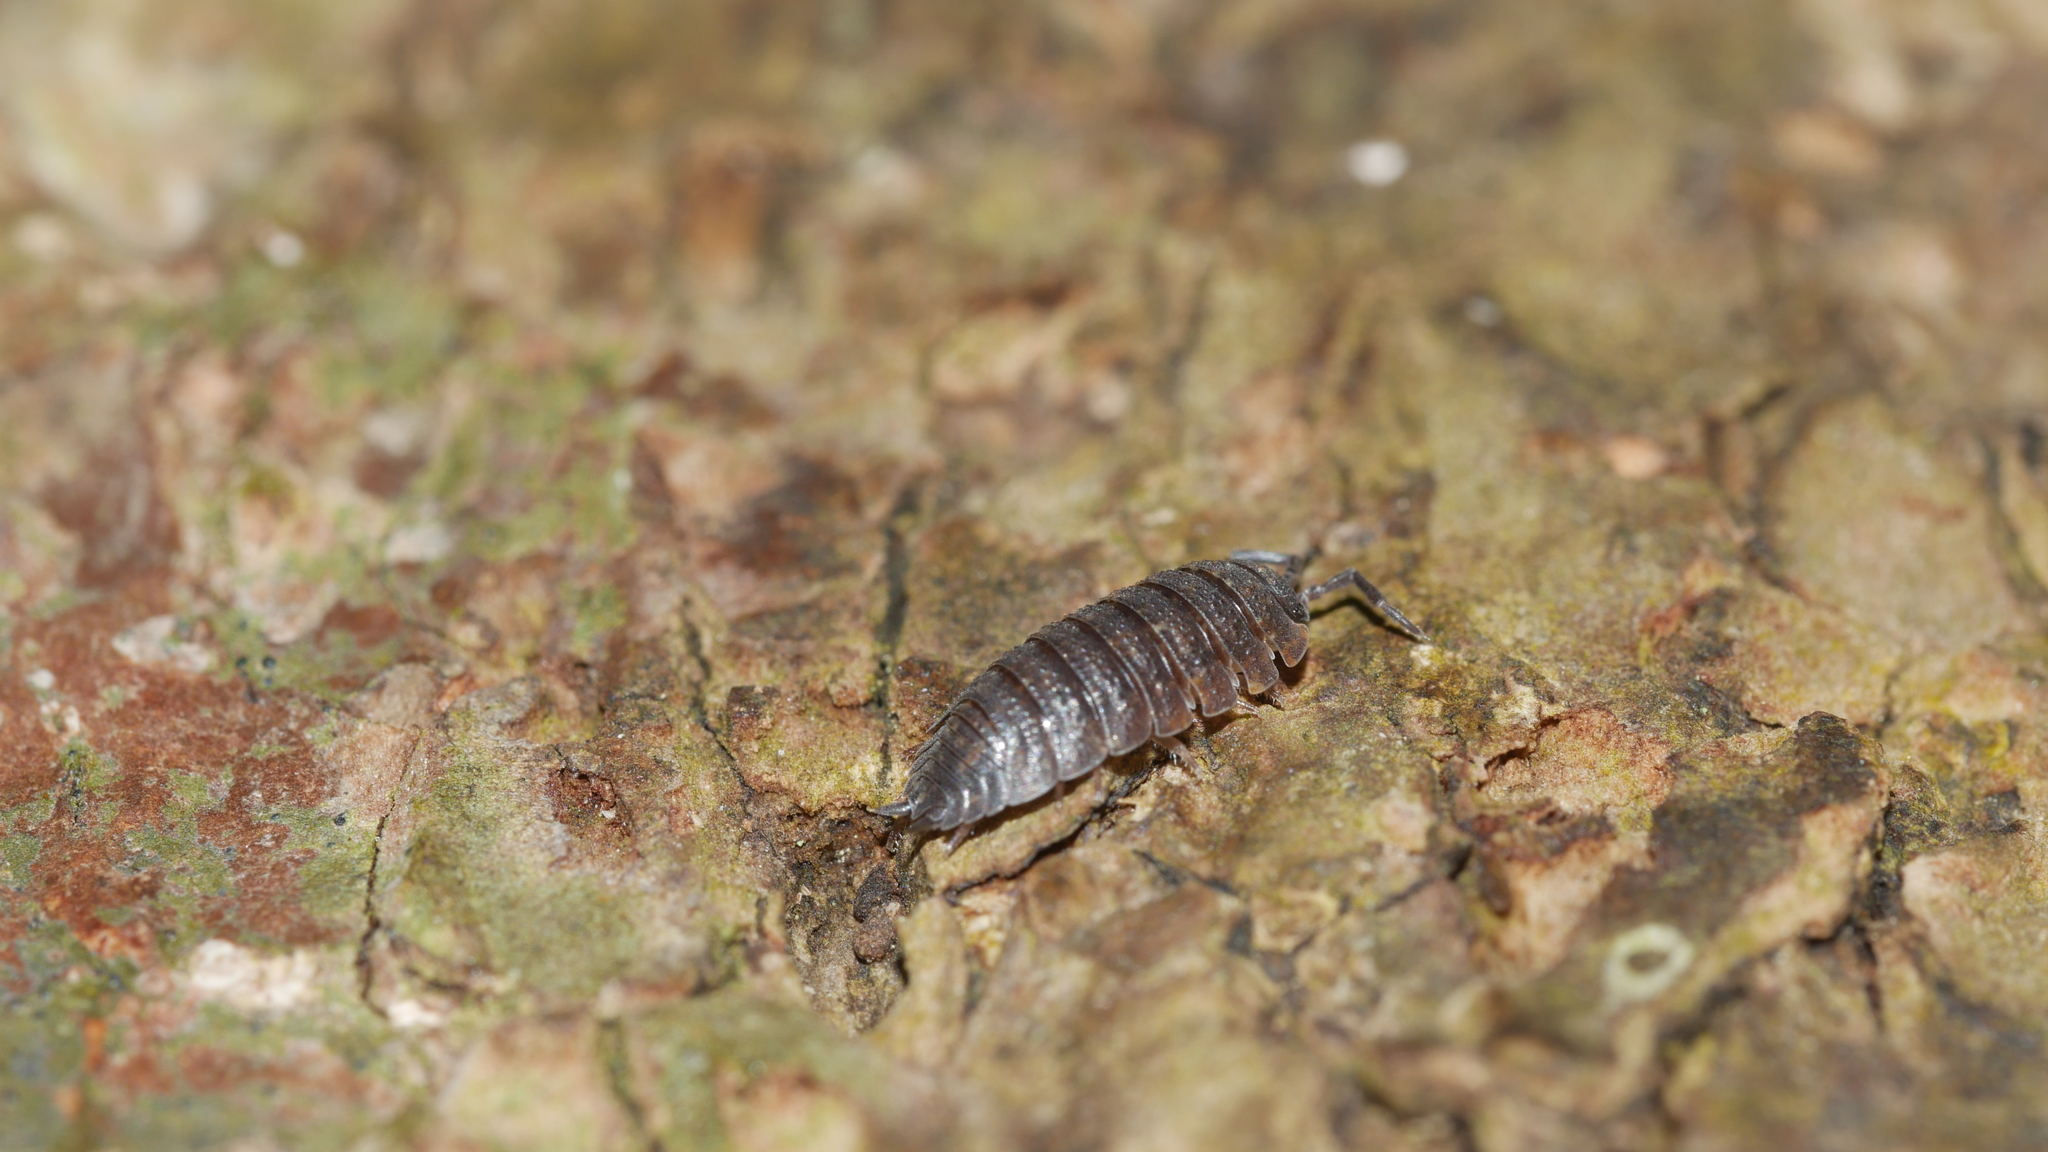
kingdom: Animalia
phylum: Arthropoda
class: Malacostraca
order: Isopoda
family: Porcellionidae
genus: Porcellio
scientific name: Porcellio scaber
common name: Common rough woodlouse
